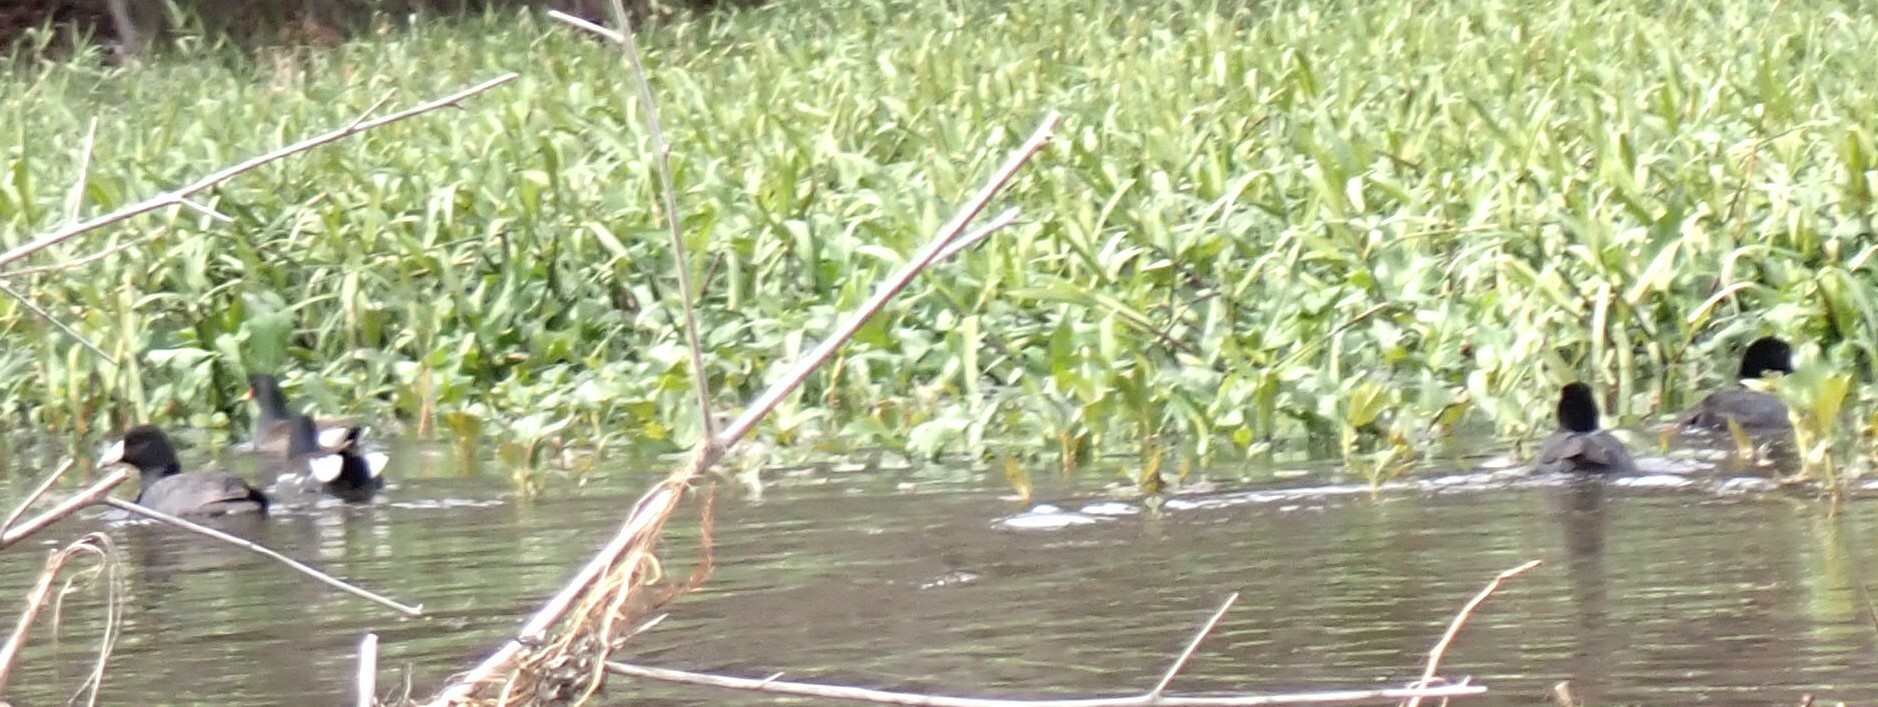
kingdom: Animalia
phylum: Chordata
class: Aves
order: Gruiformes
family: Rallidae
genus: Fulica
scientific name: Fulica americana
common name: American coot
